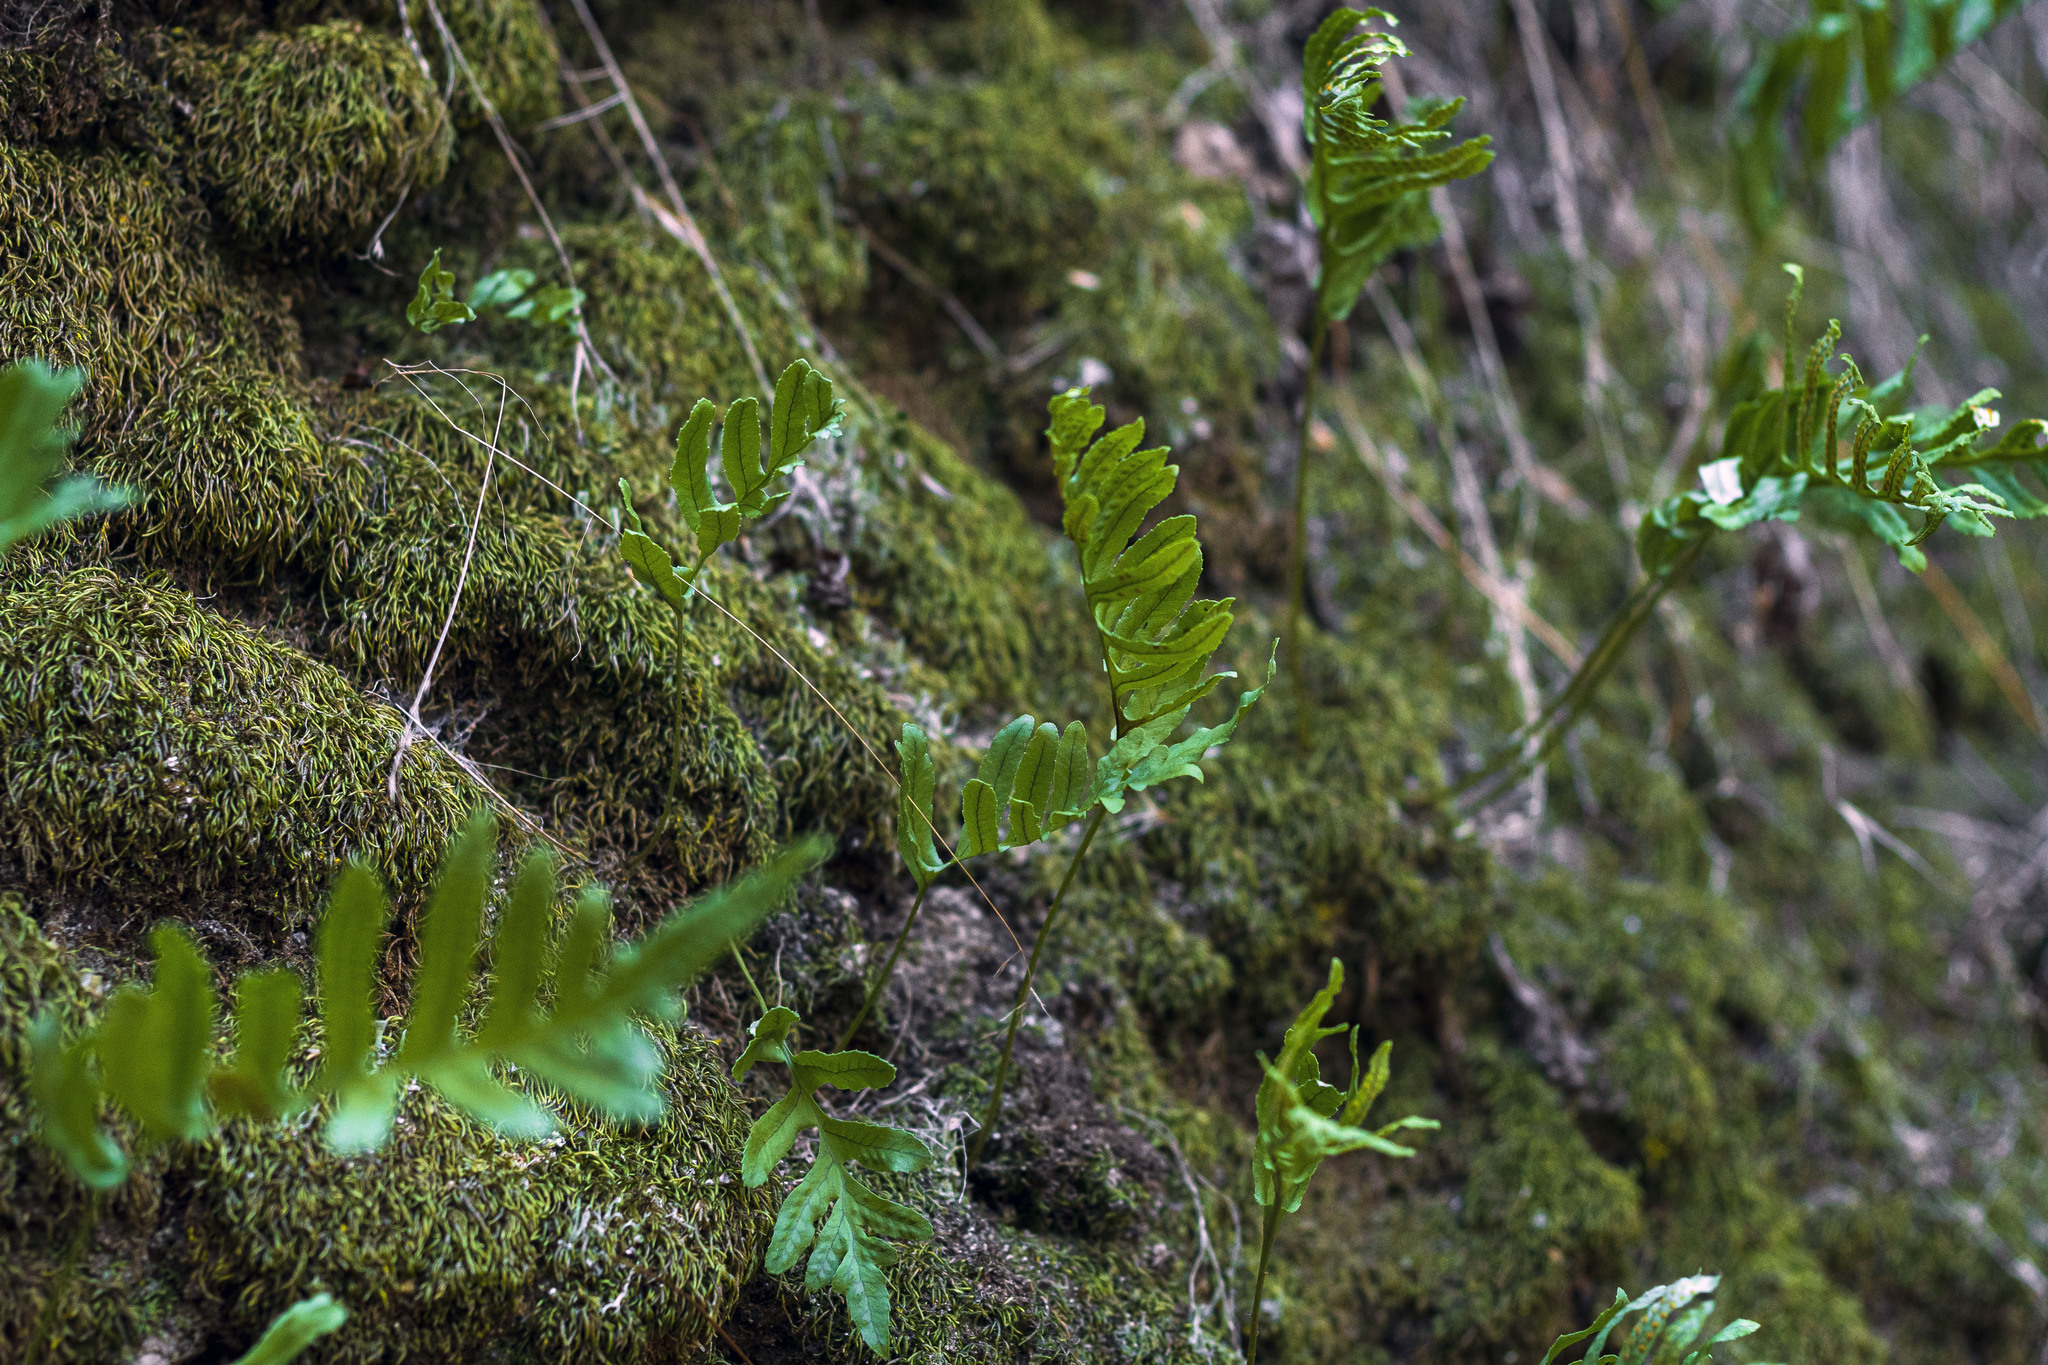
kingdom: Plantae
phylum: Tracheophyta
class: Polypodiopsida
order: Polypodiales
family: Polypodiaceae
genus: Polypodium
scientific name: Polypodium californicum
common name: California polypody
